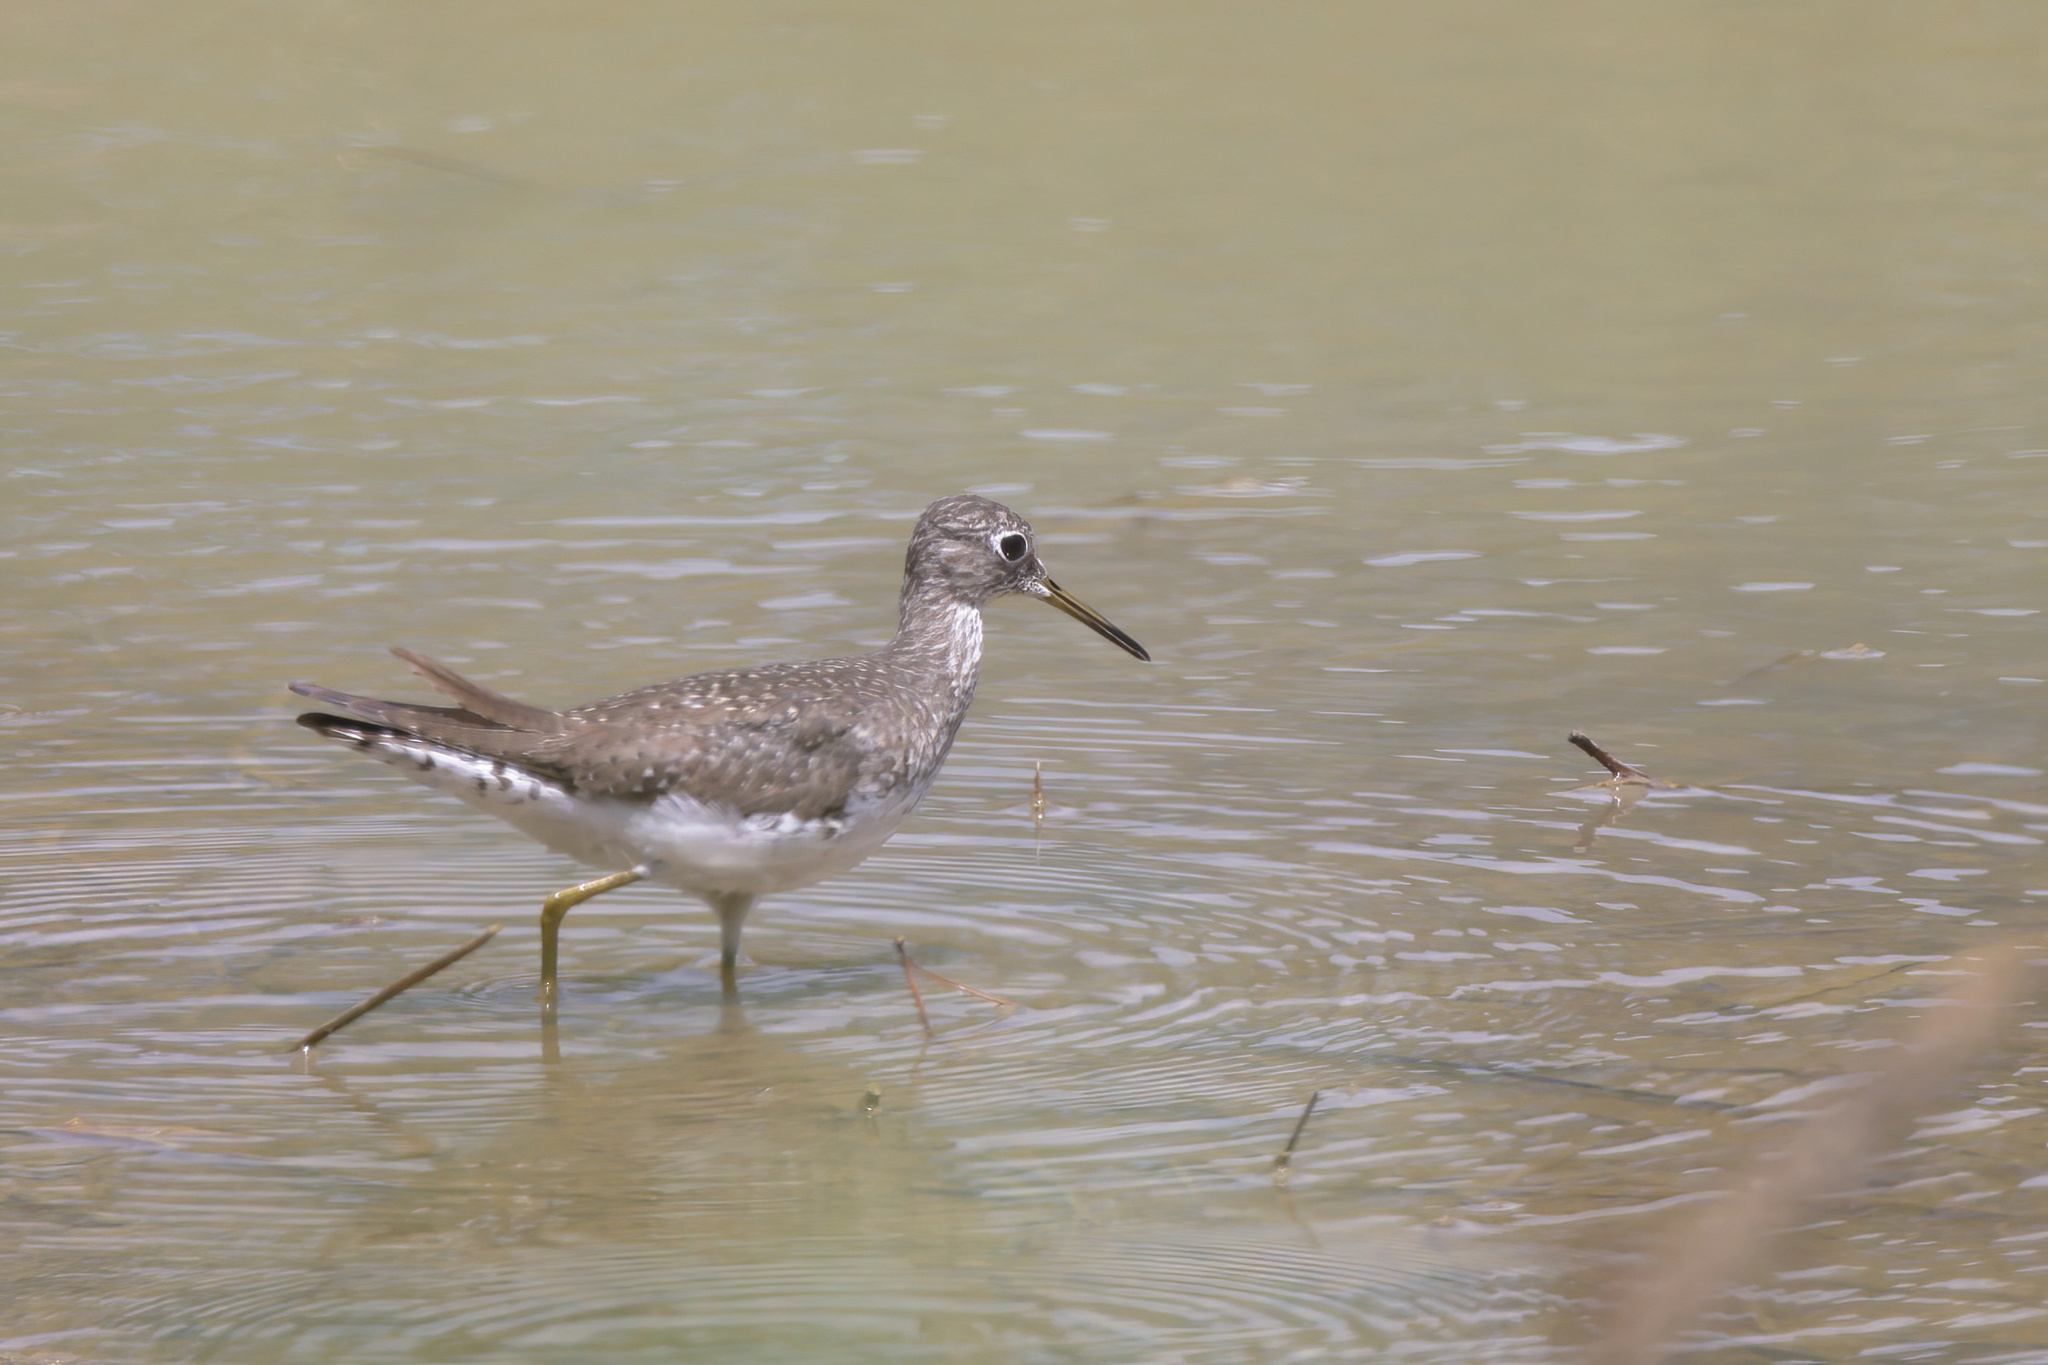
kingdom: Animalia
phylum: Chordata
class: Aves
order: Charadriiformes
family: Scolopacidae
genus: Tringa
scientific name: Tringa solitaria
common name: Solitary sandpiper
